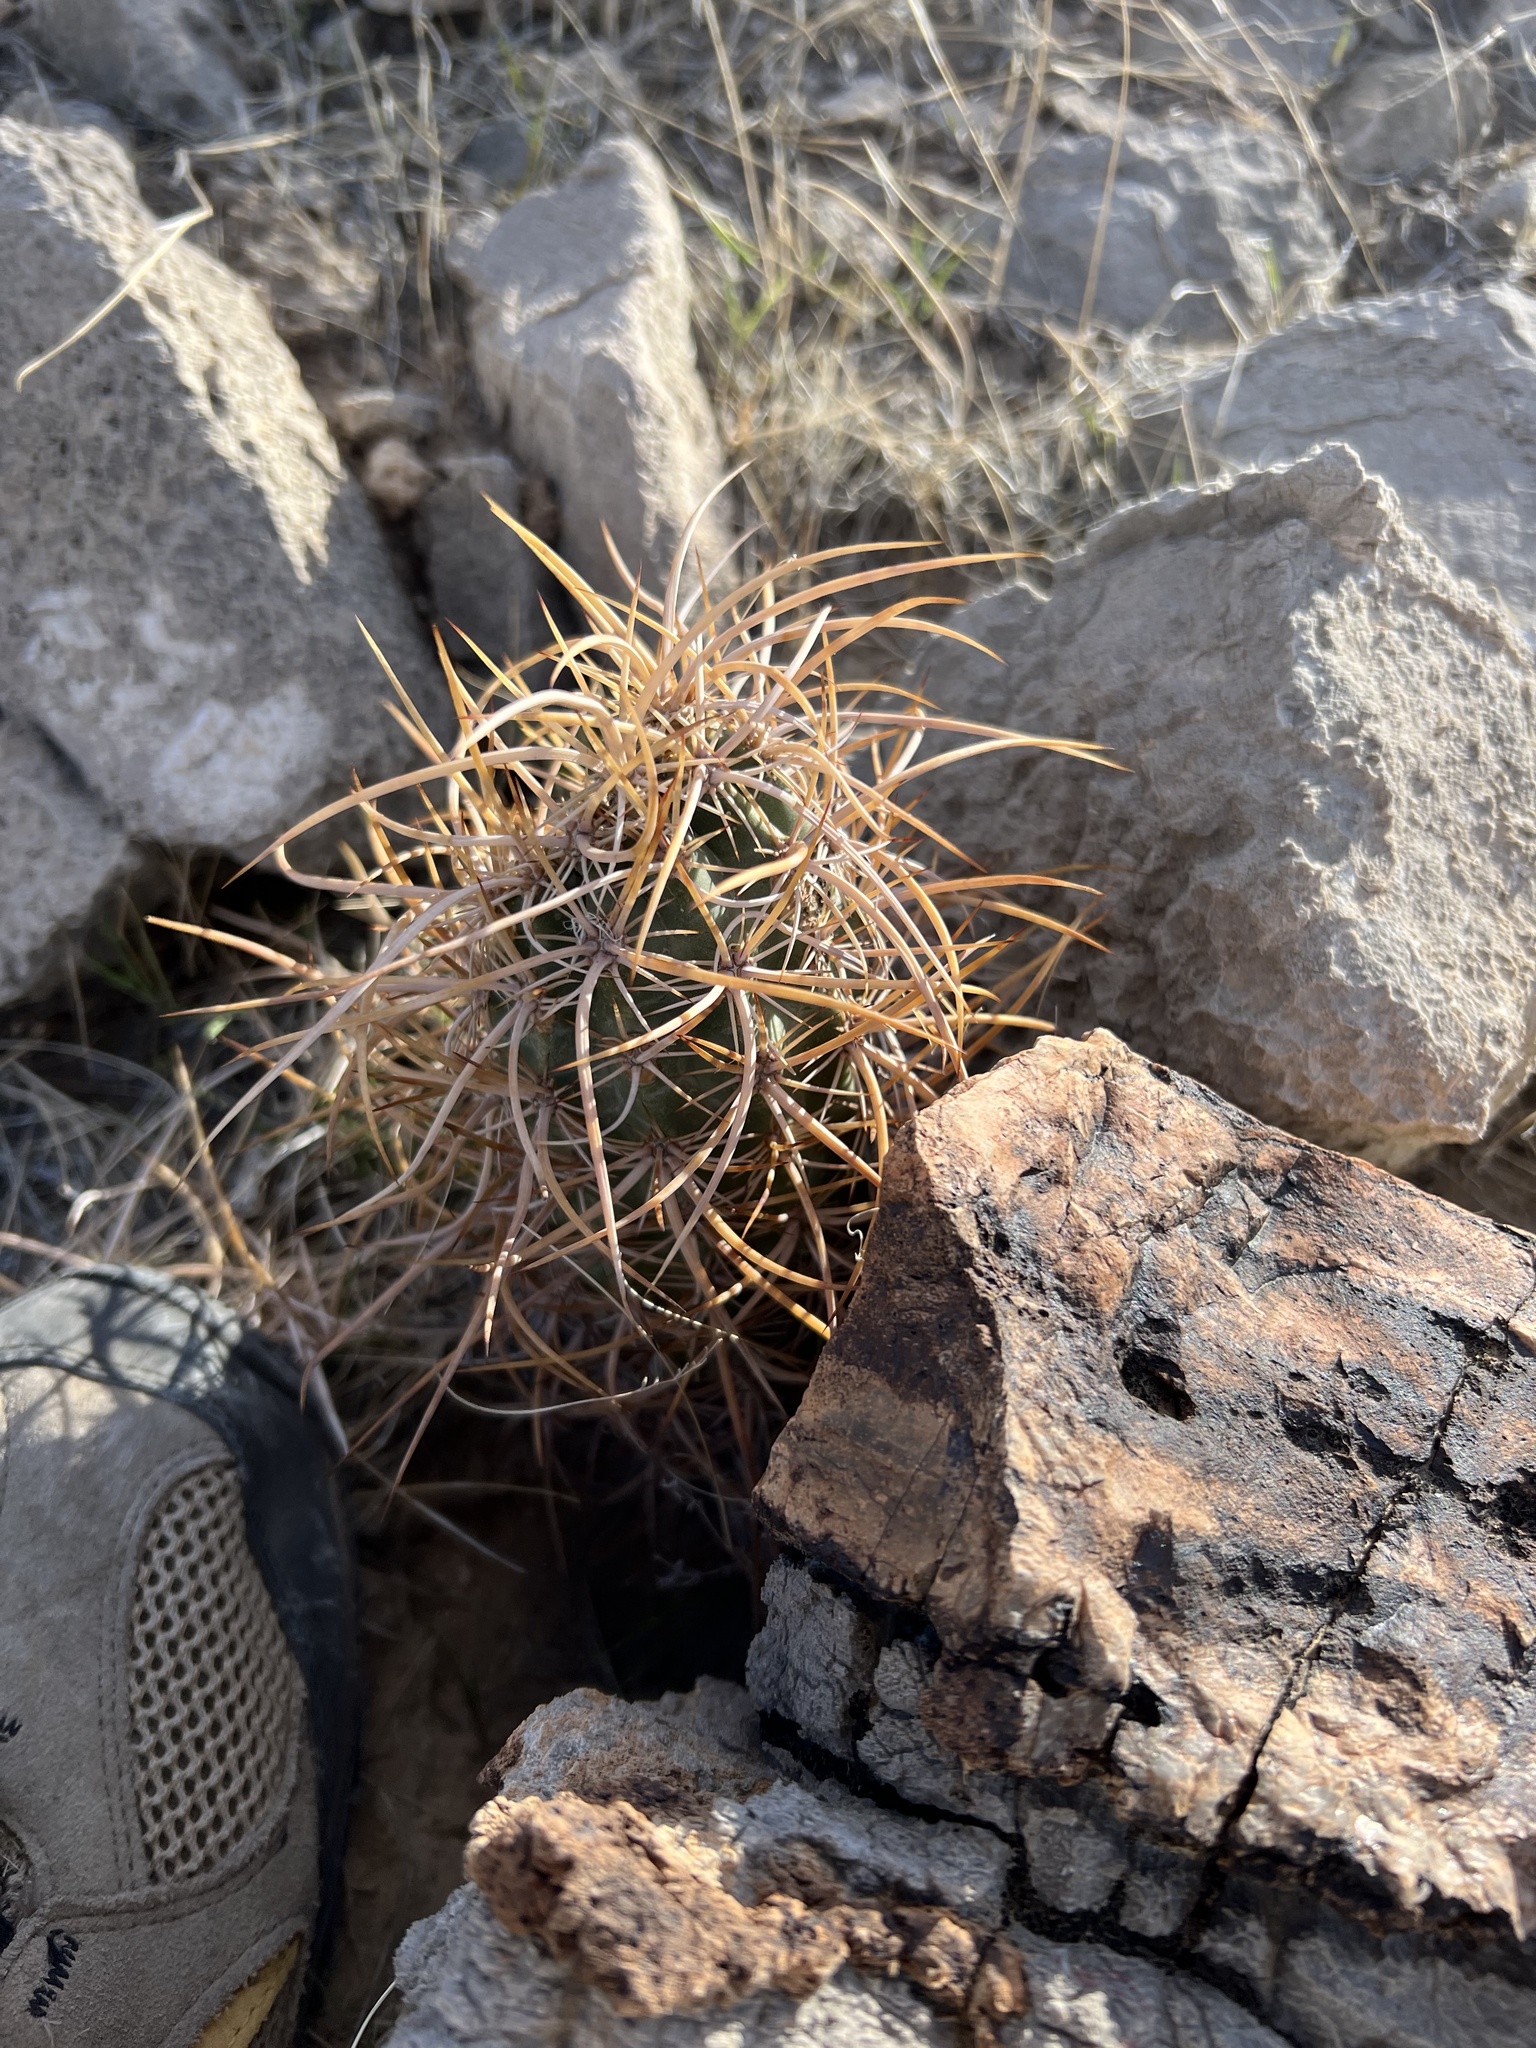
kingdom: Plantae
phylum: Tracheophyta
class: Magnoliopsida
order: Caryophyllales
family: Cactaceae
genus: Echinocereus
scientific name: Echinocereus engelmannii
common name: Engelmann's hedgehog cactus
